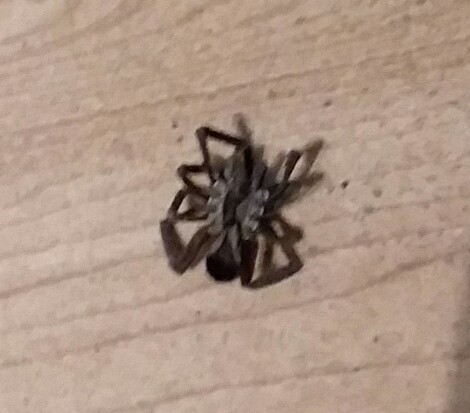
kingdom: Animalia
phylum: Arthropoda
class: Arachnida
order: Araneae
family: Filistatidae
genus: Kukulcania
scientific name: Kukulcania hibernalis
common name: Crevice weaver
